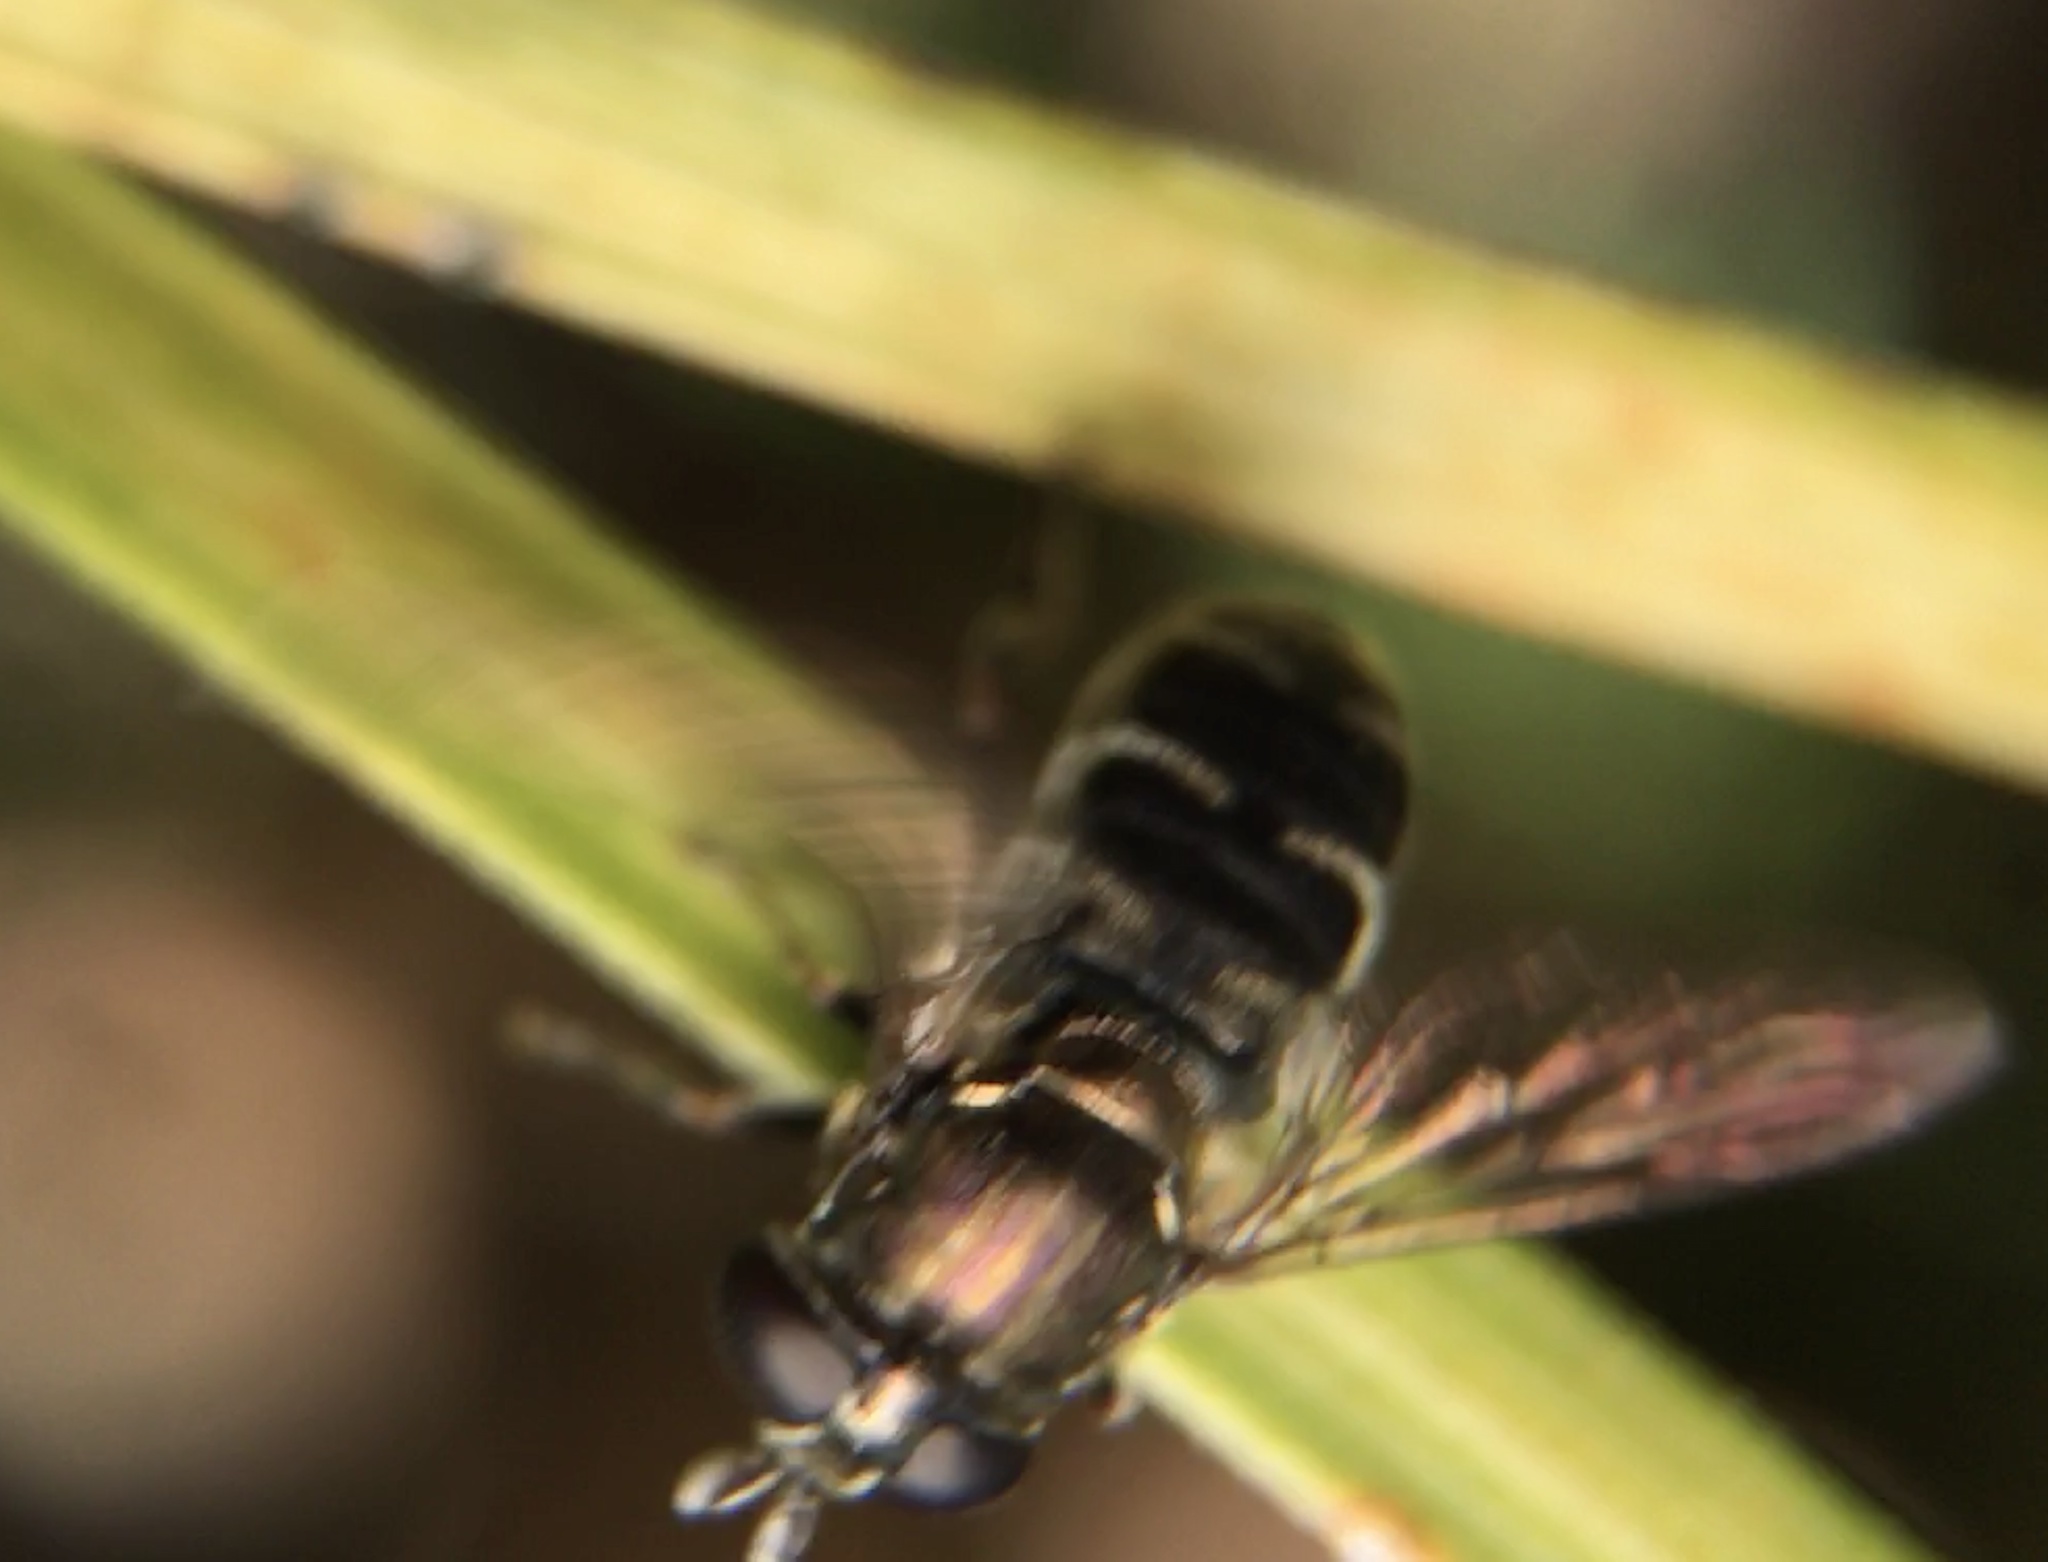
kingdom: Animalia
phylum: Arthropoda
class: Insecta
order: Diptera
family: Syrphidae
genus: Eumerus
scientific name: Eumerus
